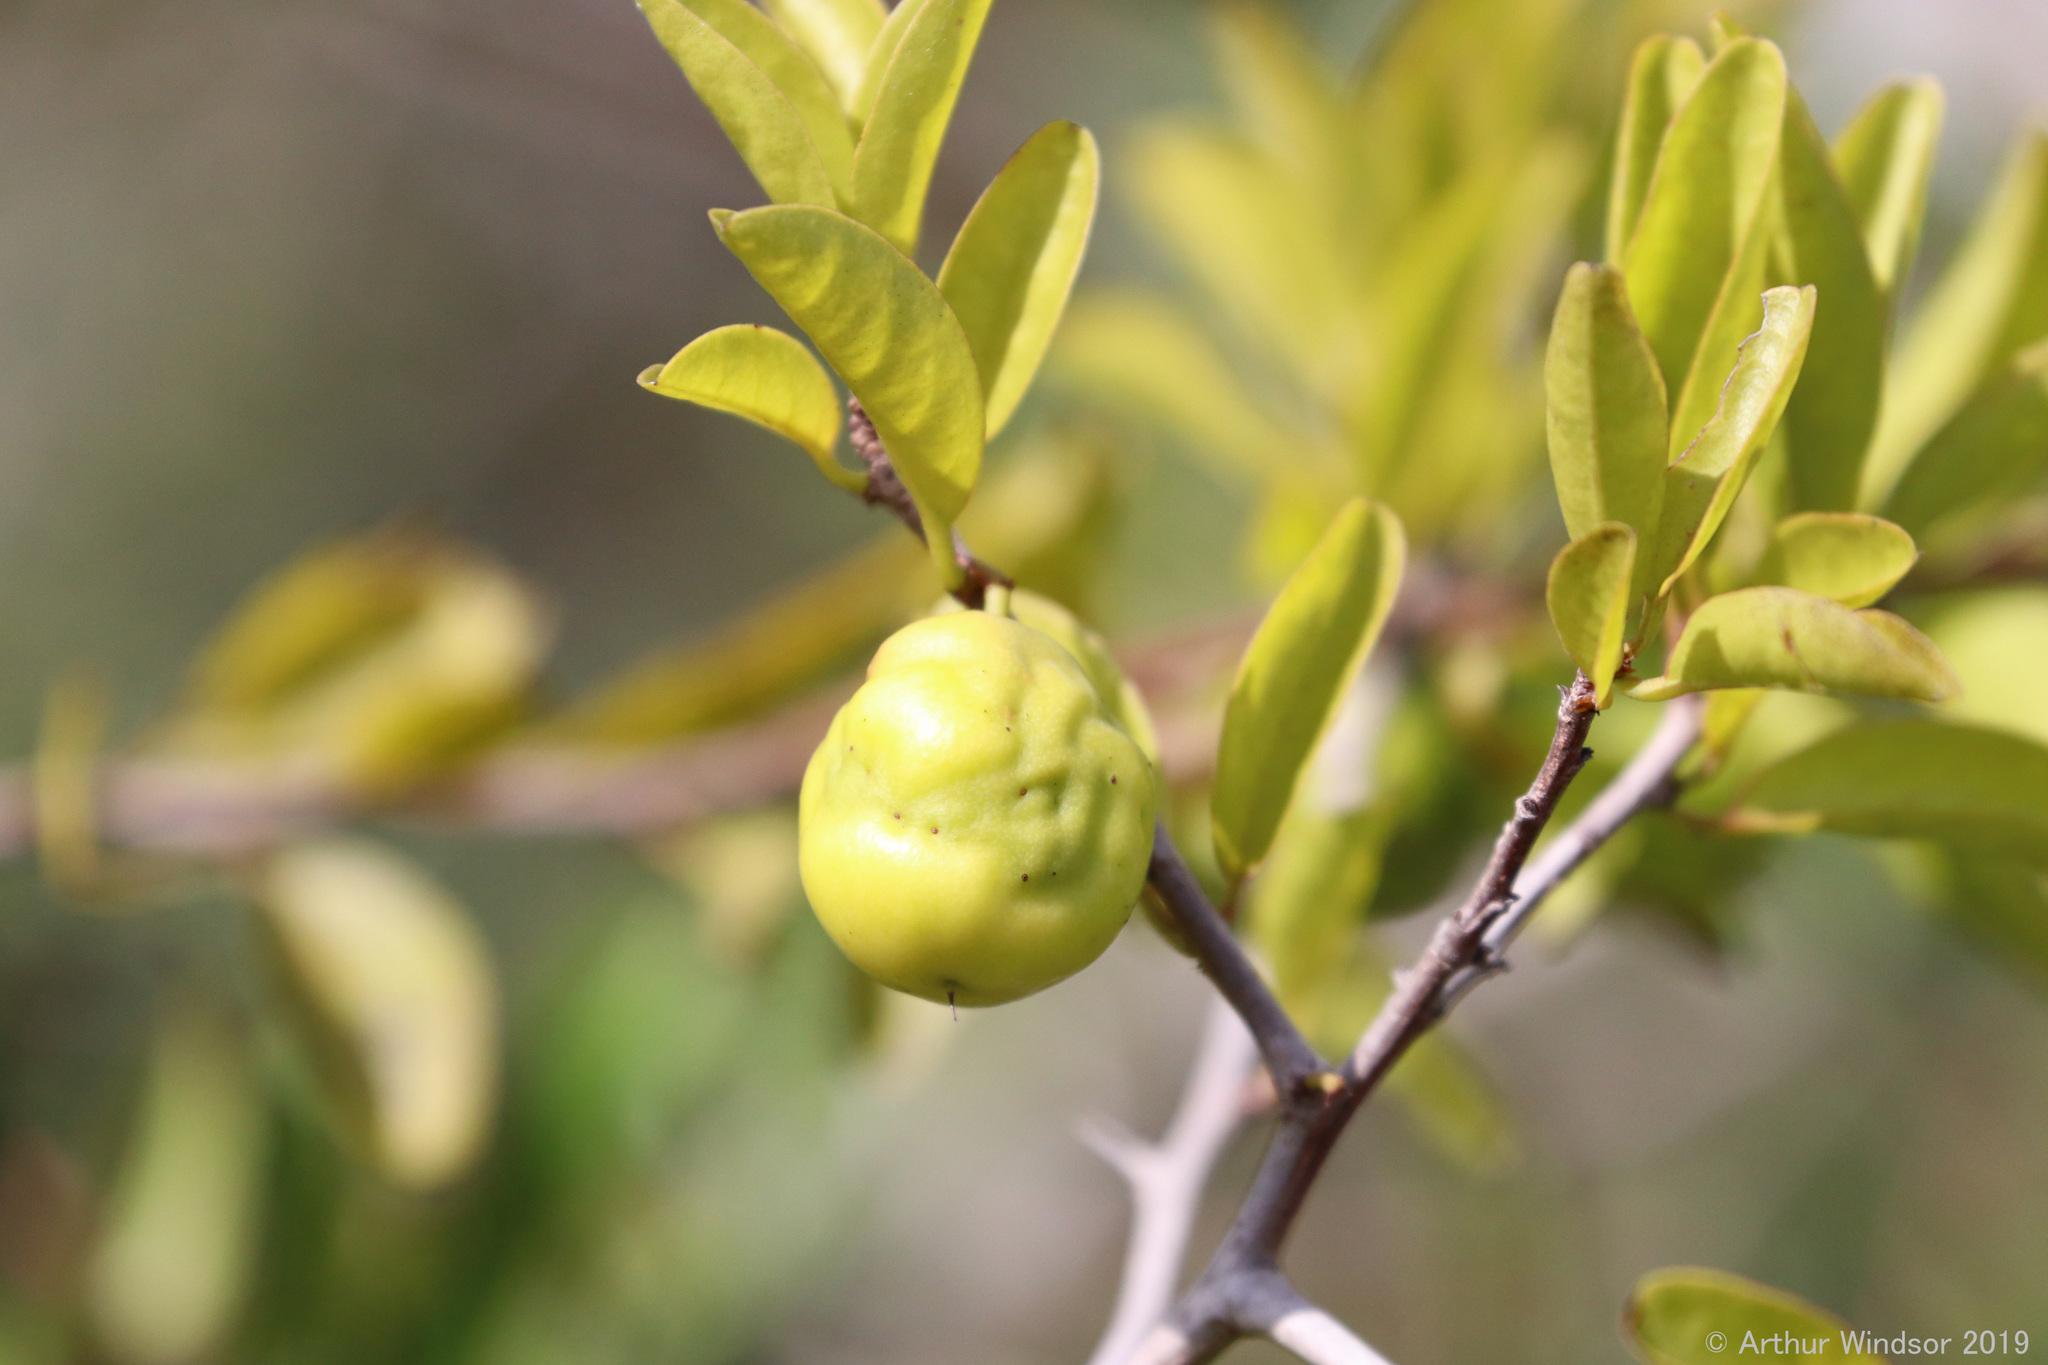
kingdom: Plantae
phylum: Tracheophyta
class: Magnoliopsida
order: Santalales
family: Ximeniaceae
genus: Ximenia
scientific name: Ximenia americana
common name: Tallowwood
